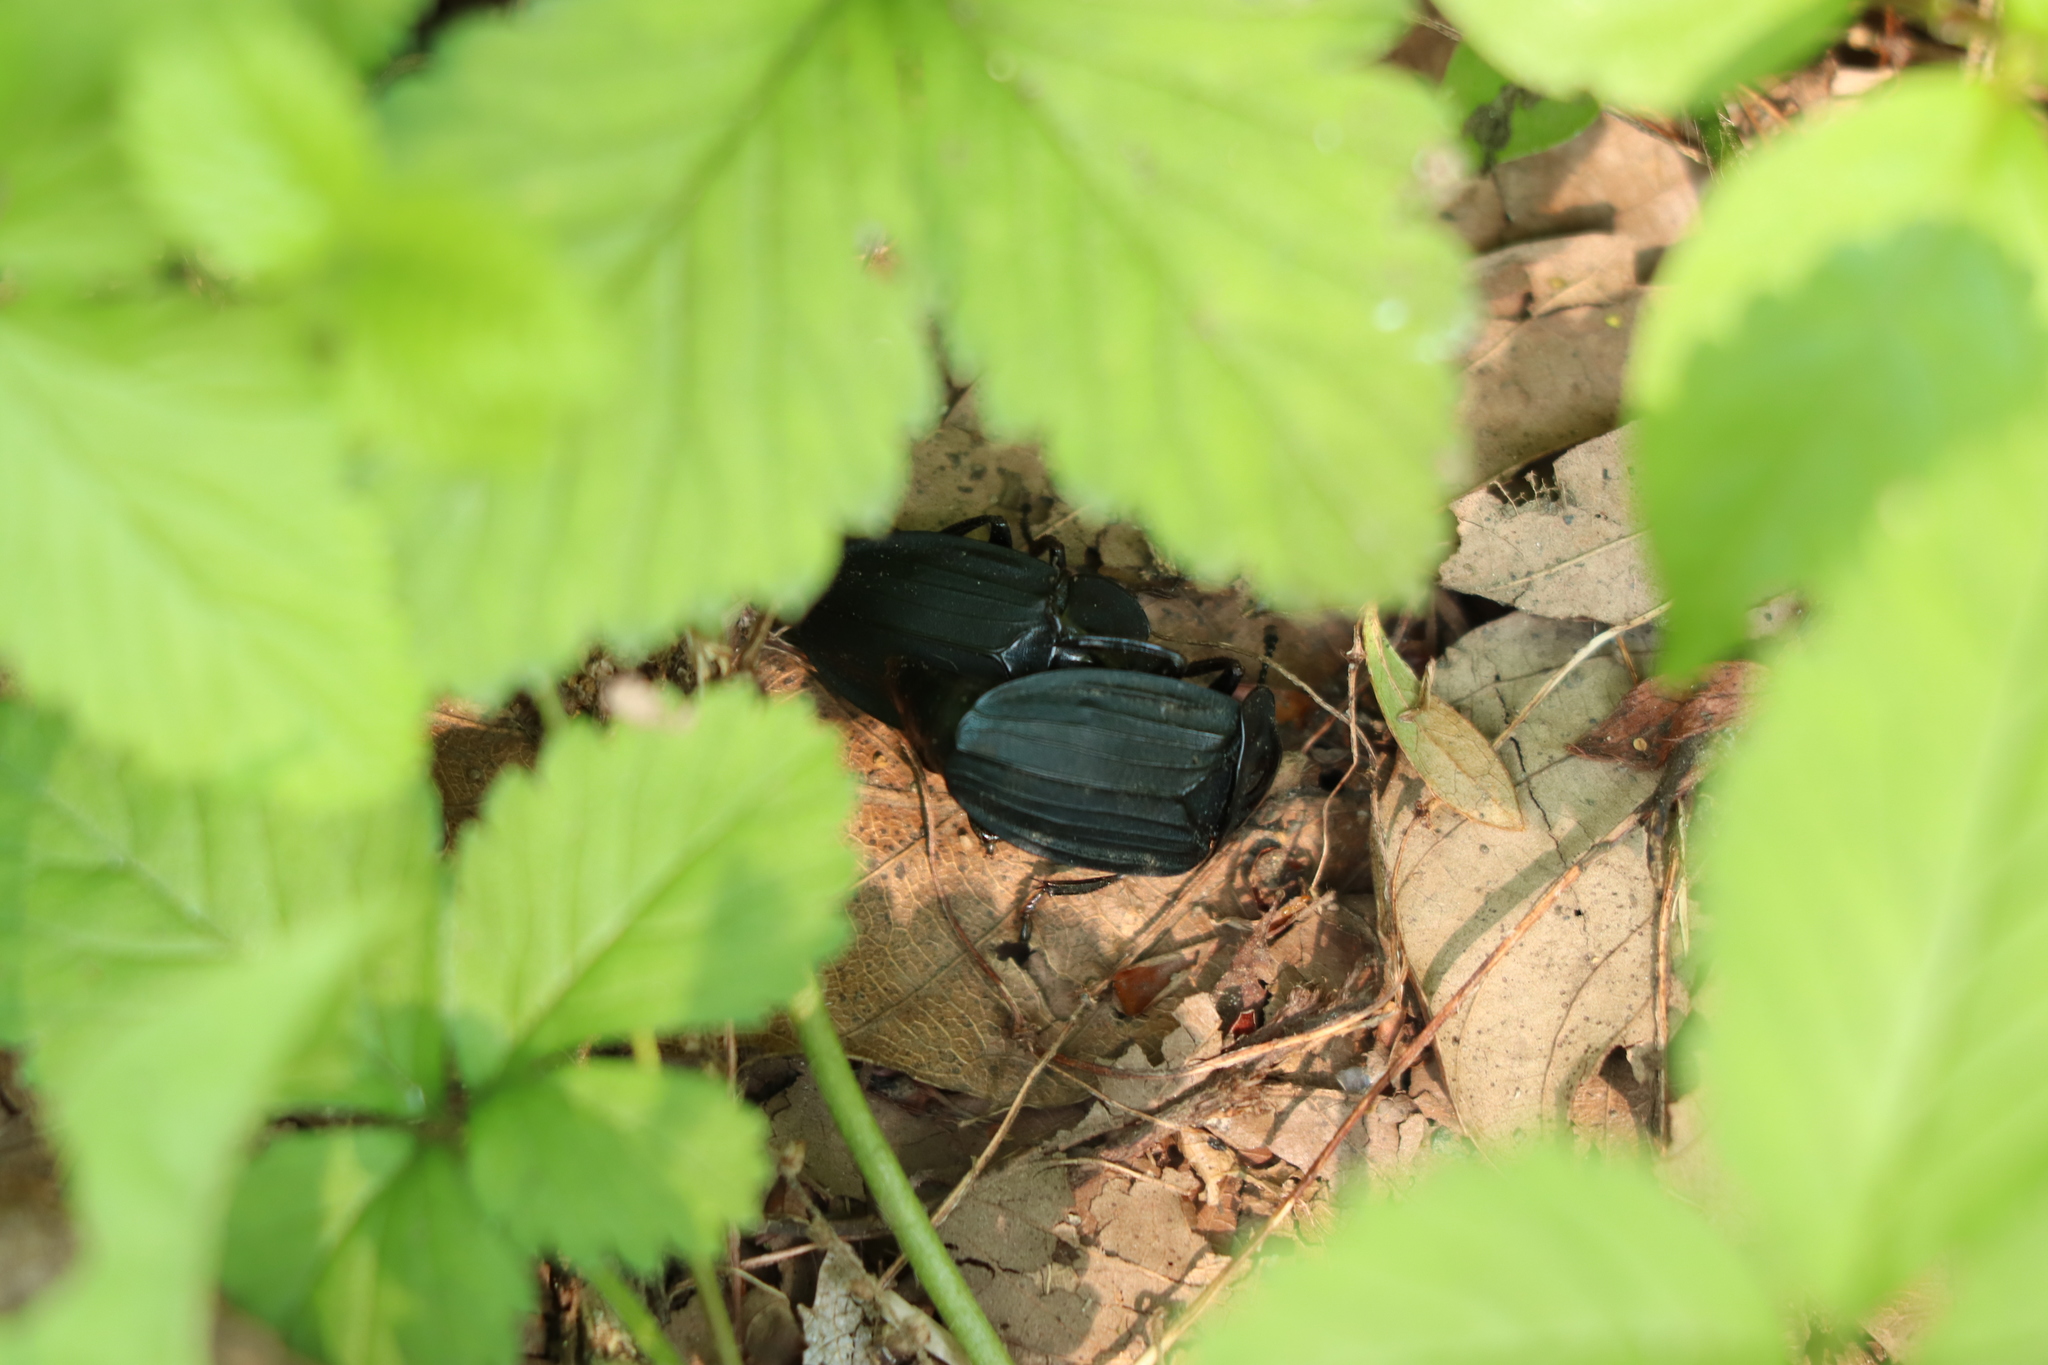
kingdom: Animalia
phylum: Arthropoda
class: Insecta
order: Coleoptera
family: Staphylinidae
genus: Necrophila
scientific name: Necrophila japonica
